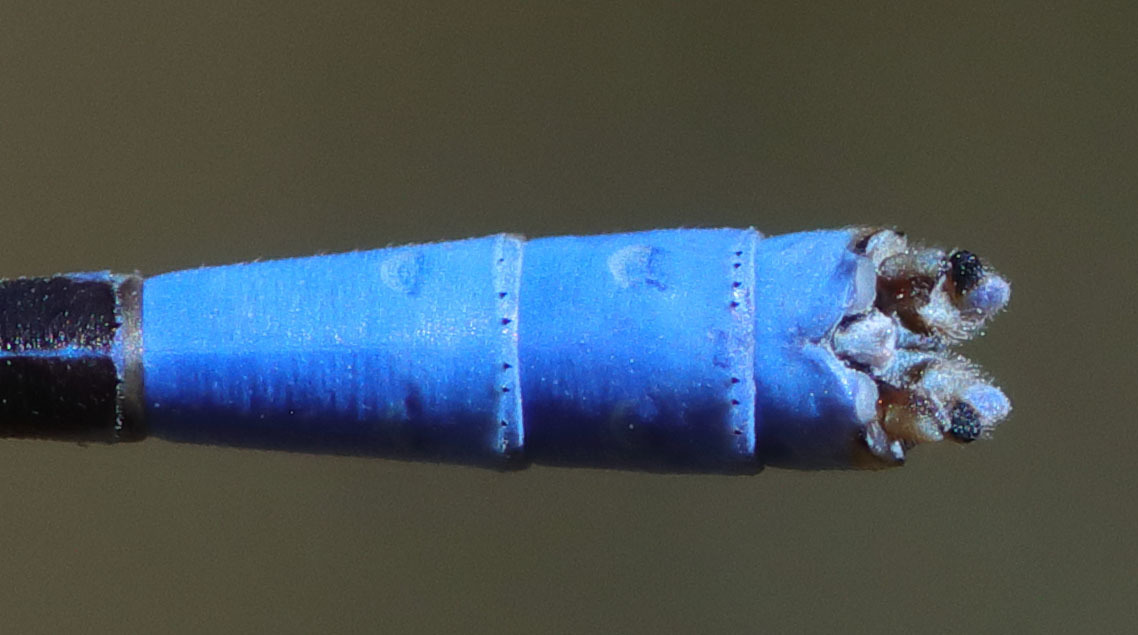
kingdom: Animalia
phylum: Arthropoda
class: Insecta
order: Odonata
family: Coenagrionidae
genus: Argia
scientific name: Argia agrioides
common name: California dancer
